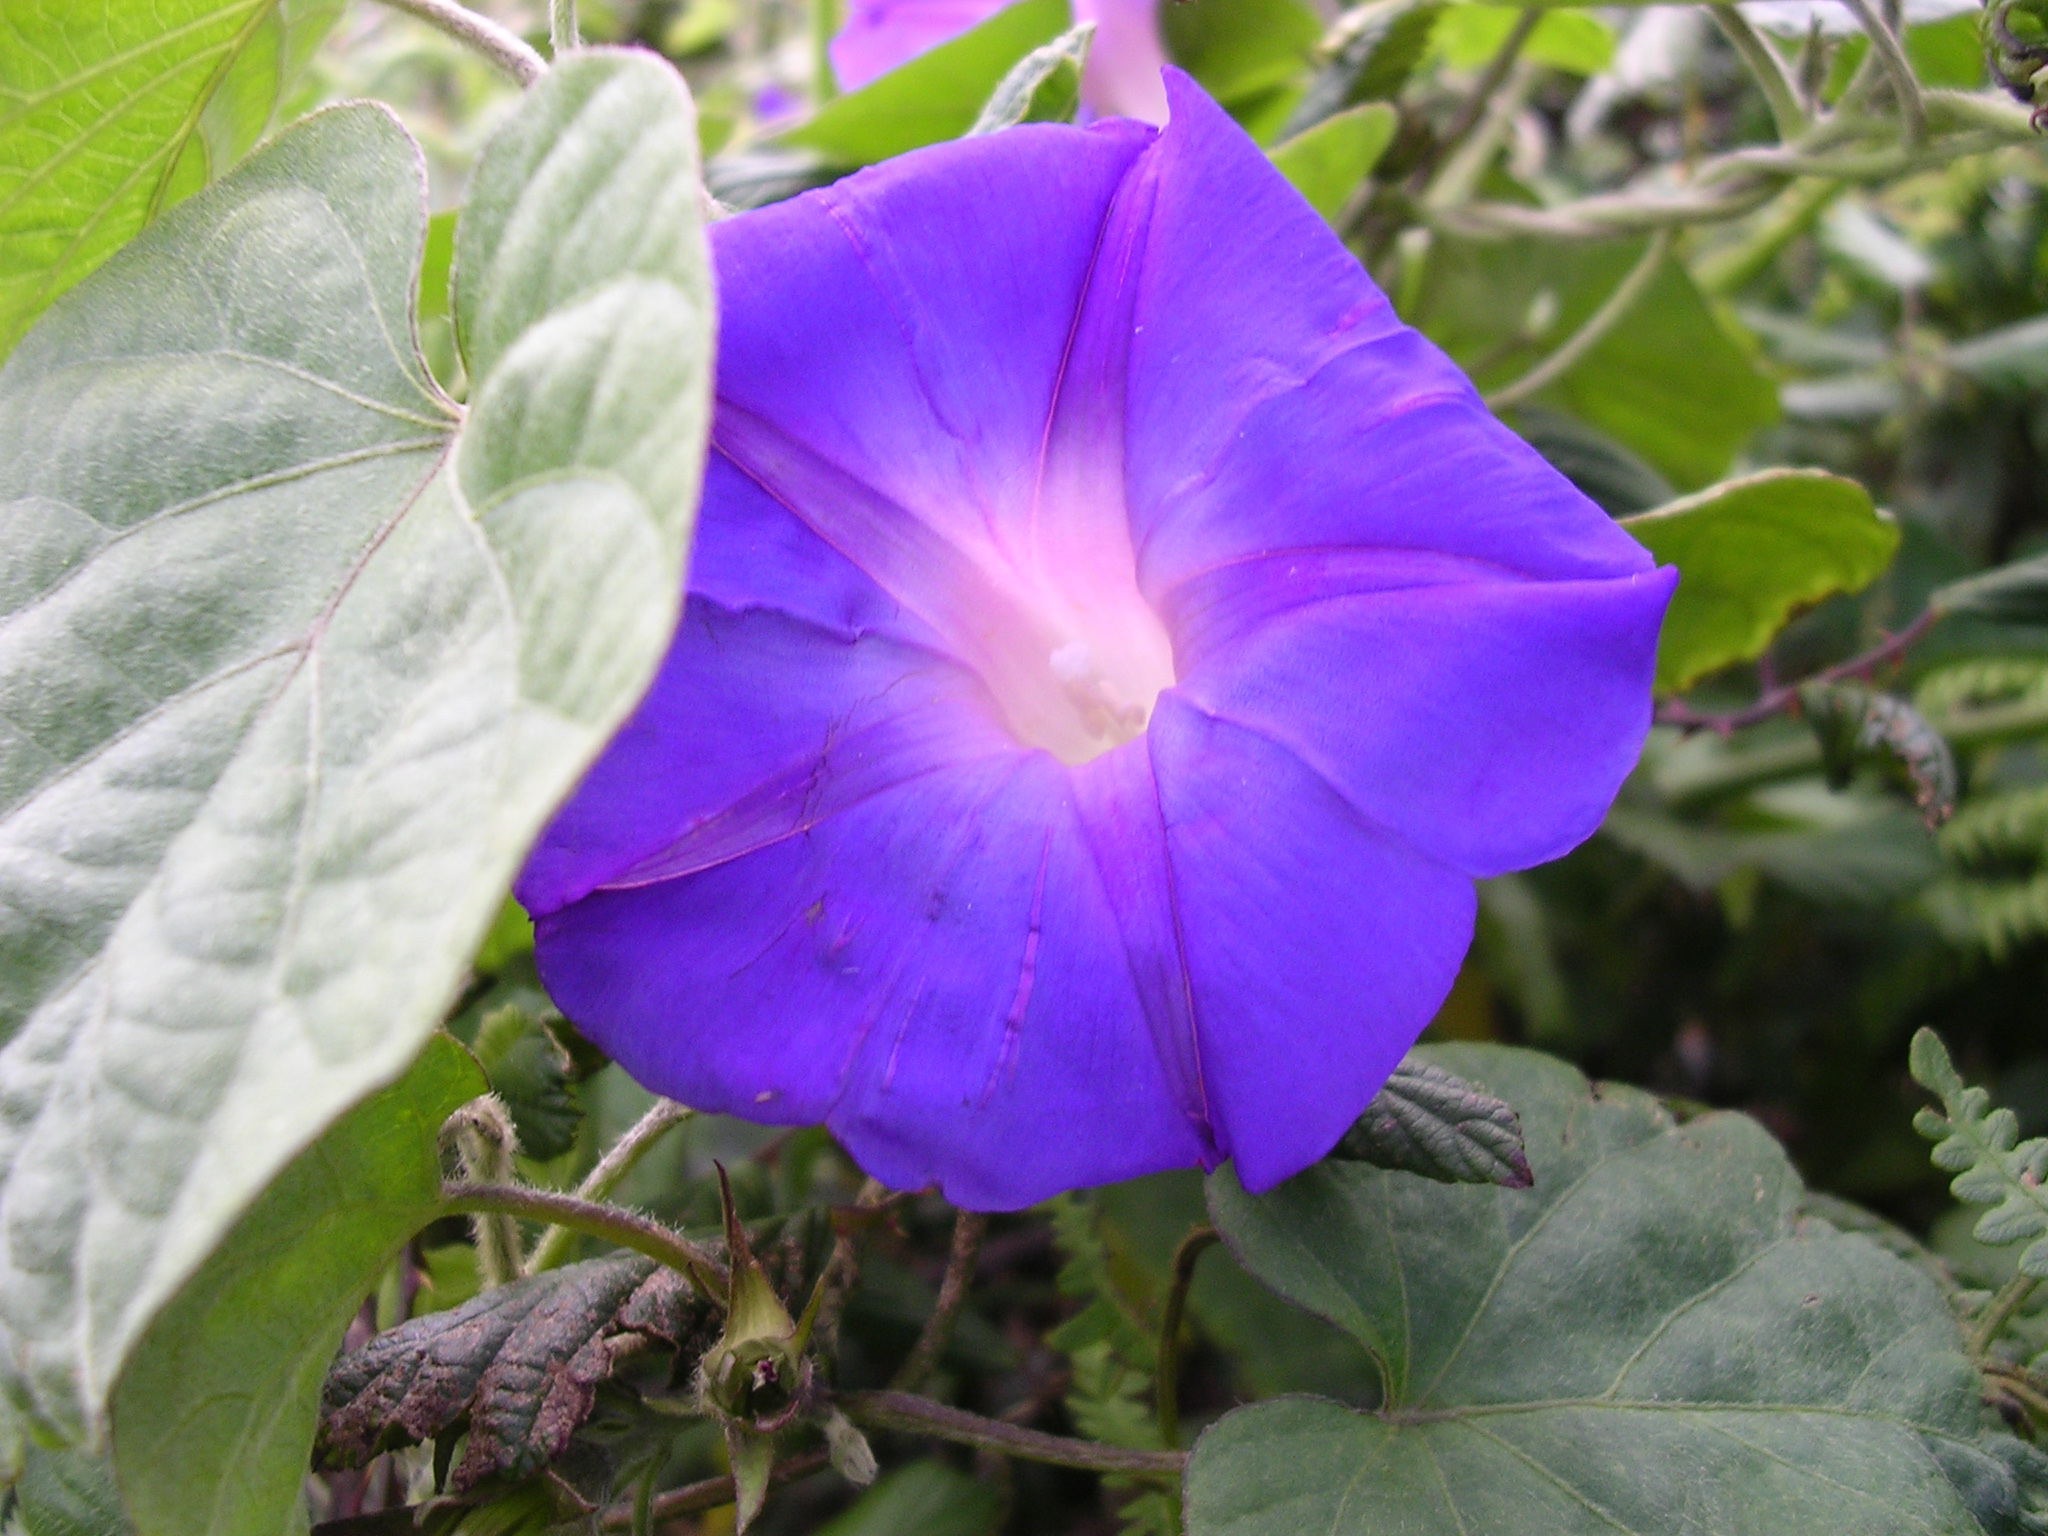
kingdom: Plantae
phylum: Tracheophyta
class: Magnoliopsida
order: Solanales
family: Convolvulaceae
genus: Ipomoea
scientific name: Ipomoea indica
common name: Blue dawnflower
